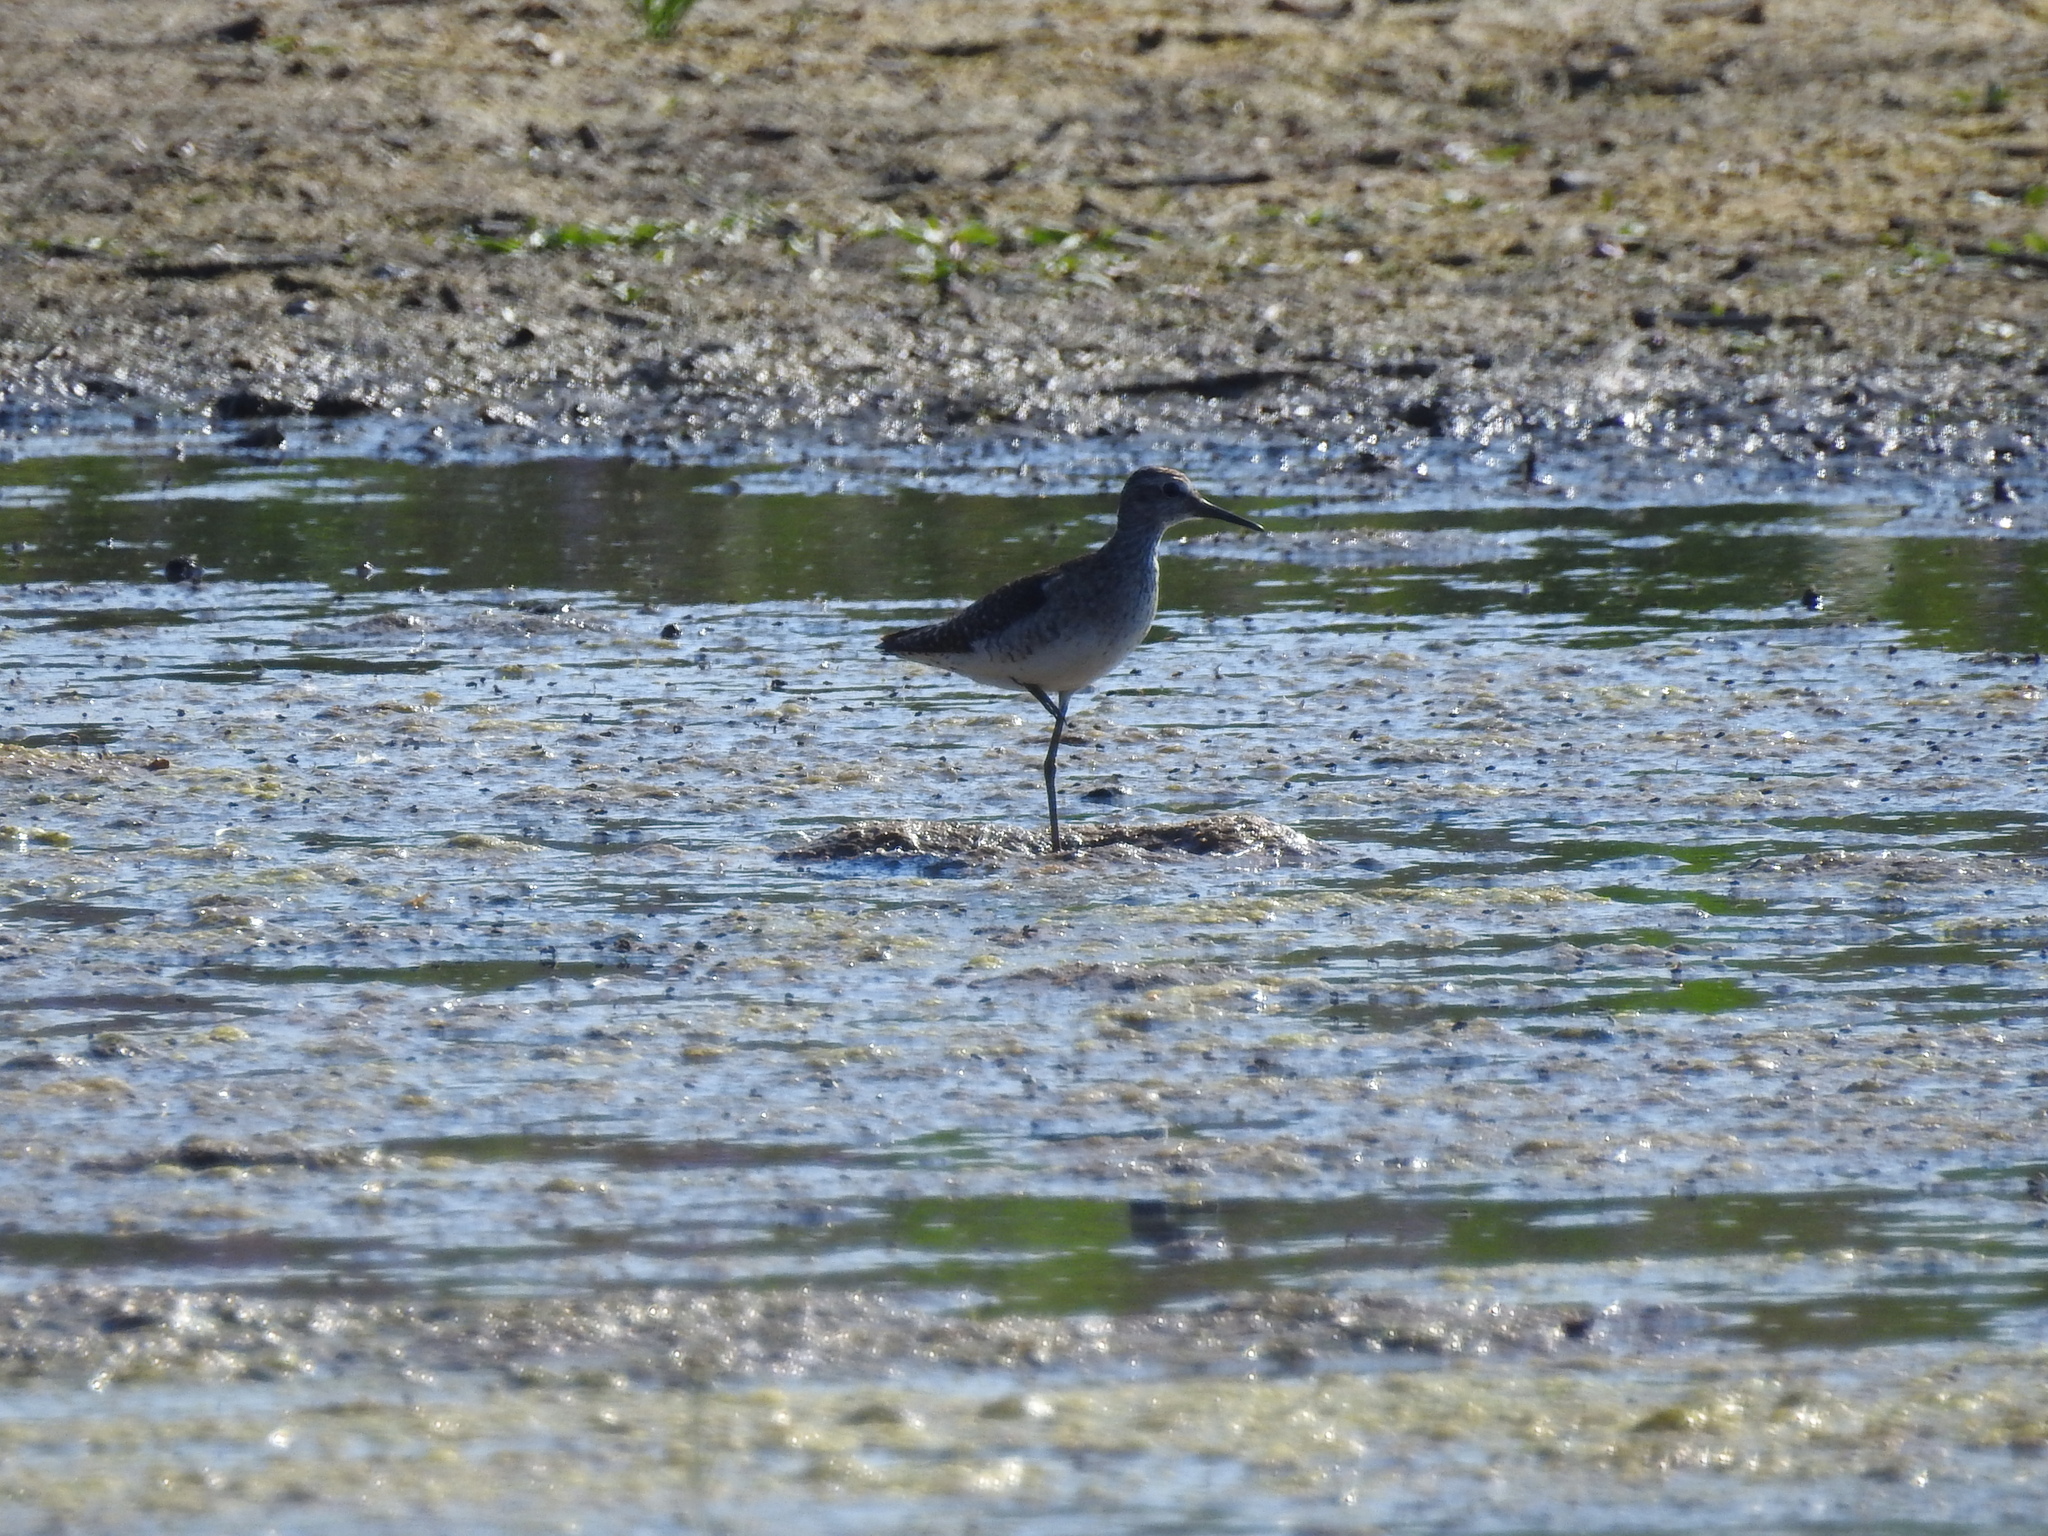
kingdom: Animalia
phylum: Chordata
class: Aves
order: Charadriiformes
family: Scolopacidae
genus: Tringa
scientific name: Tringa glareola
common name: Wood sandpiper
